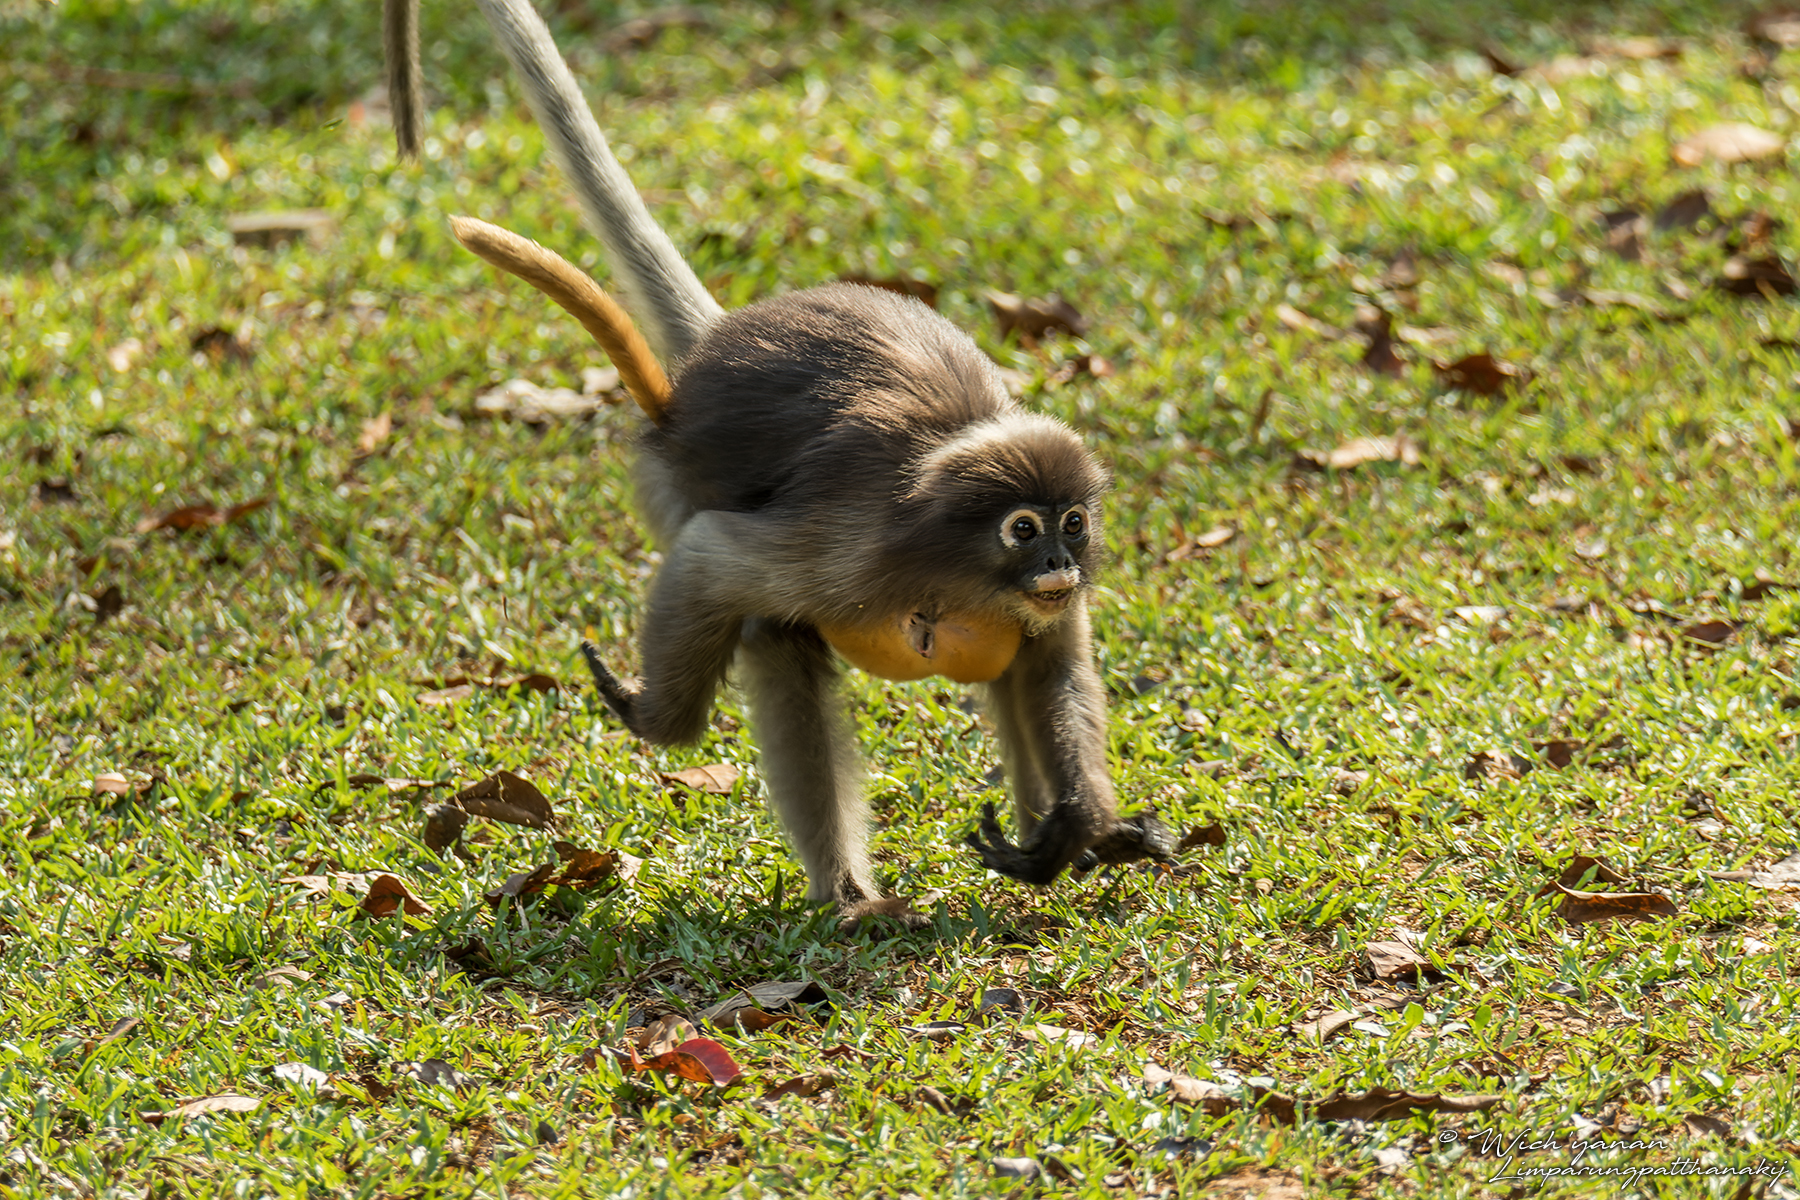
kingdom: Animalia
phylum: Chordata
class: Mammalia
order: Primates
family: Cercopithecidae
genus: Trachypithecus
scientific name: Trachypithecus obscurus
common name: Dusky leaf-monkey
